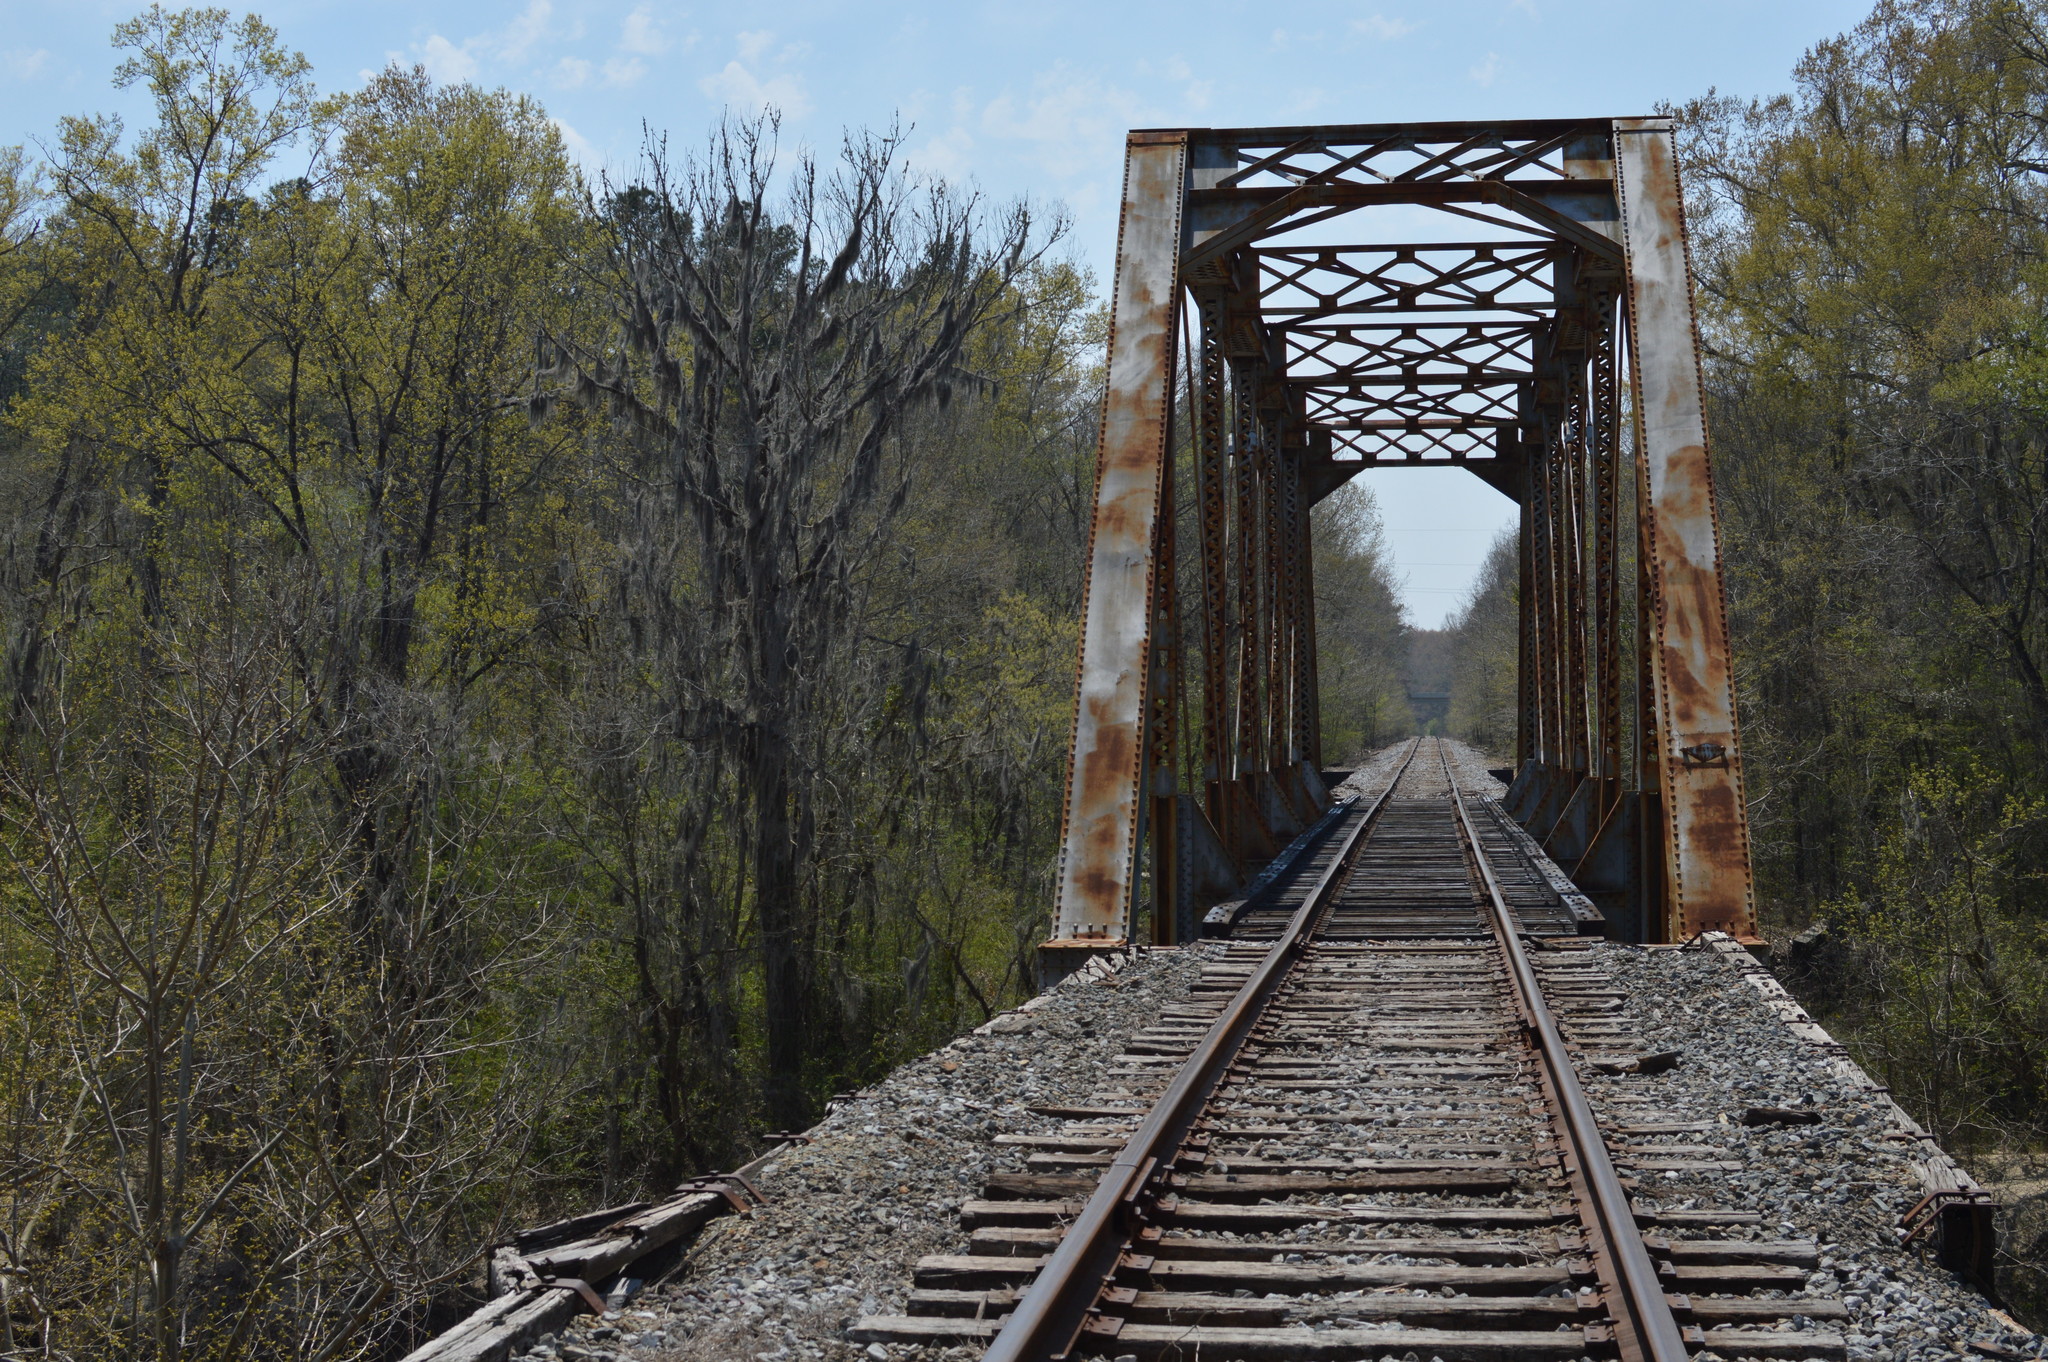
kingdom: Plantae
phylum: Tracheophyta
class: Liliopsida
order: Poales
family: Bromeliaceae
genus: Tillandsia
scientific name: Tillandsia usneoides
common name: Spanish moss
